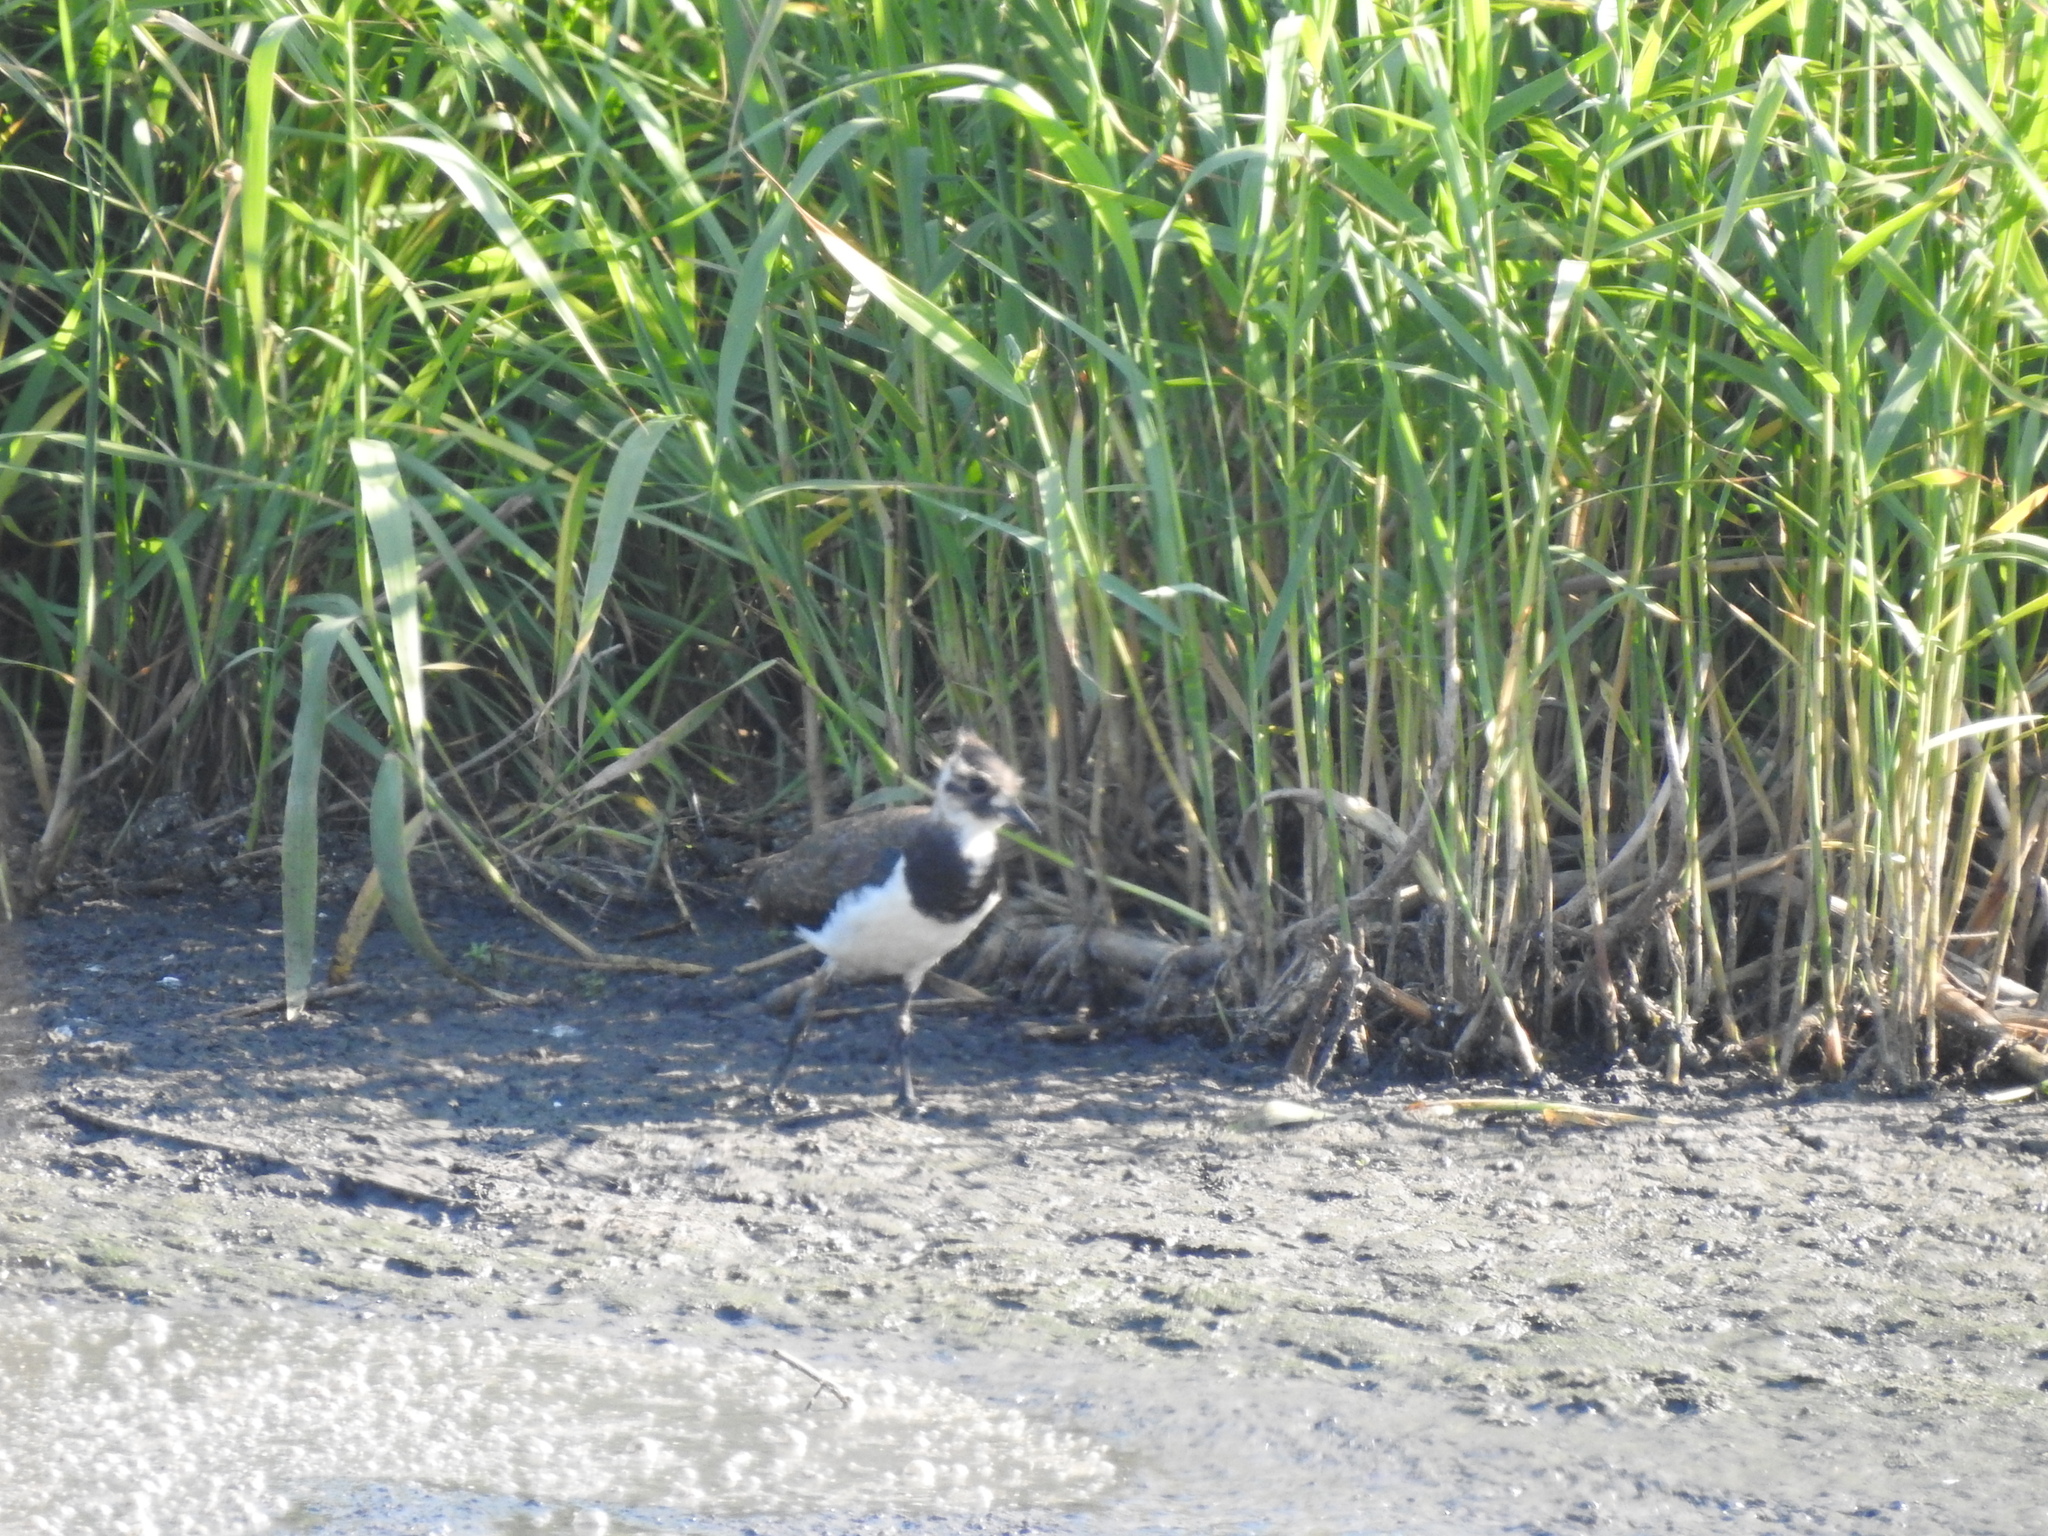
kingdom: Animalia
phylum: Chordata
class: Aves
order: Charadriiformes
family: Charadriidae
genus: Vanellus
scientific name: Vanellus vanellus
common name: Northern lapwing
